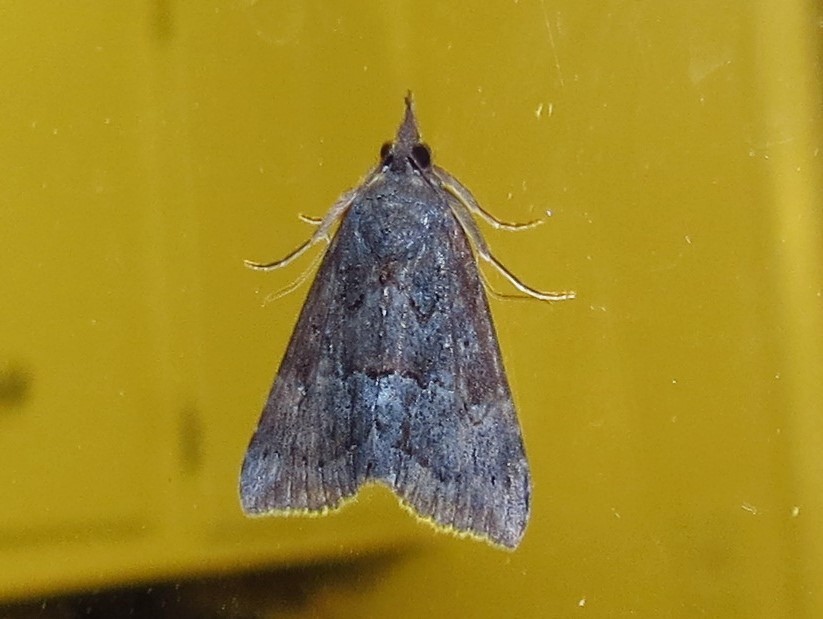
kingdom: Animalia
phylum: Arthropoda
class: Insecta
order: Lepidoptera
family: Erebidae
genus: Hypena
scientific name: Hypena scabra
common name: Green cloverworm
